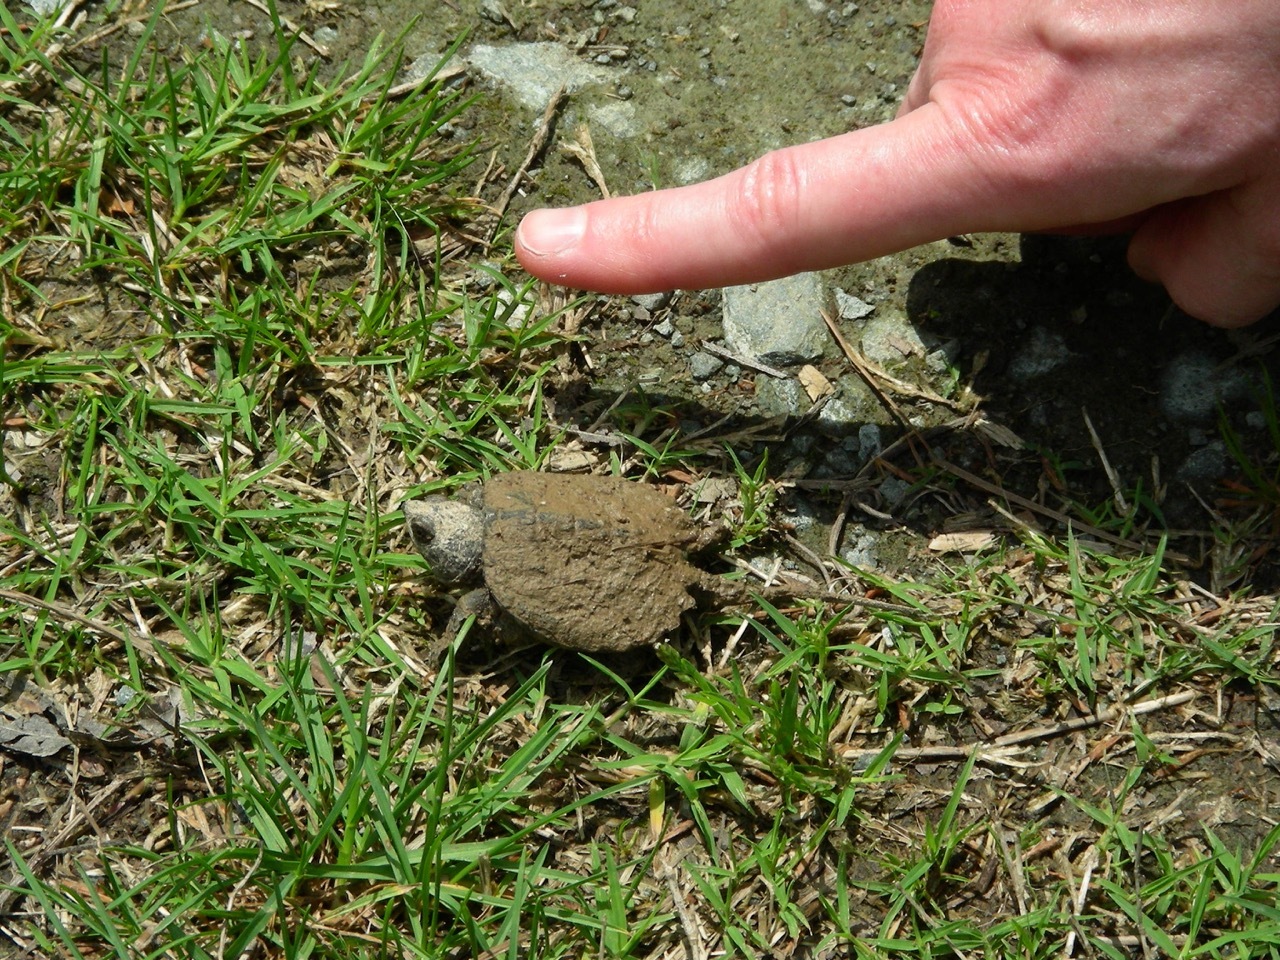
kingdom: Animalia
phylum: Chordata
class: Testudines
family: Chelydridae
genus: Chelydra
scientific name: Chelydra serpentina
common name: Common snapping turtle
